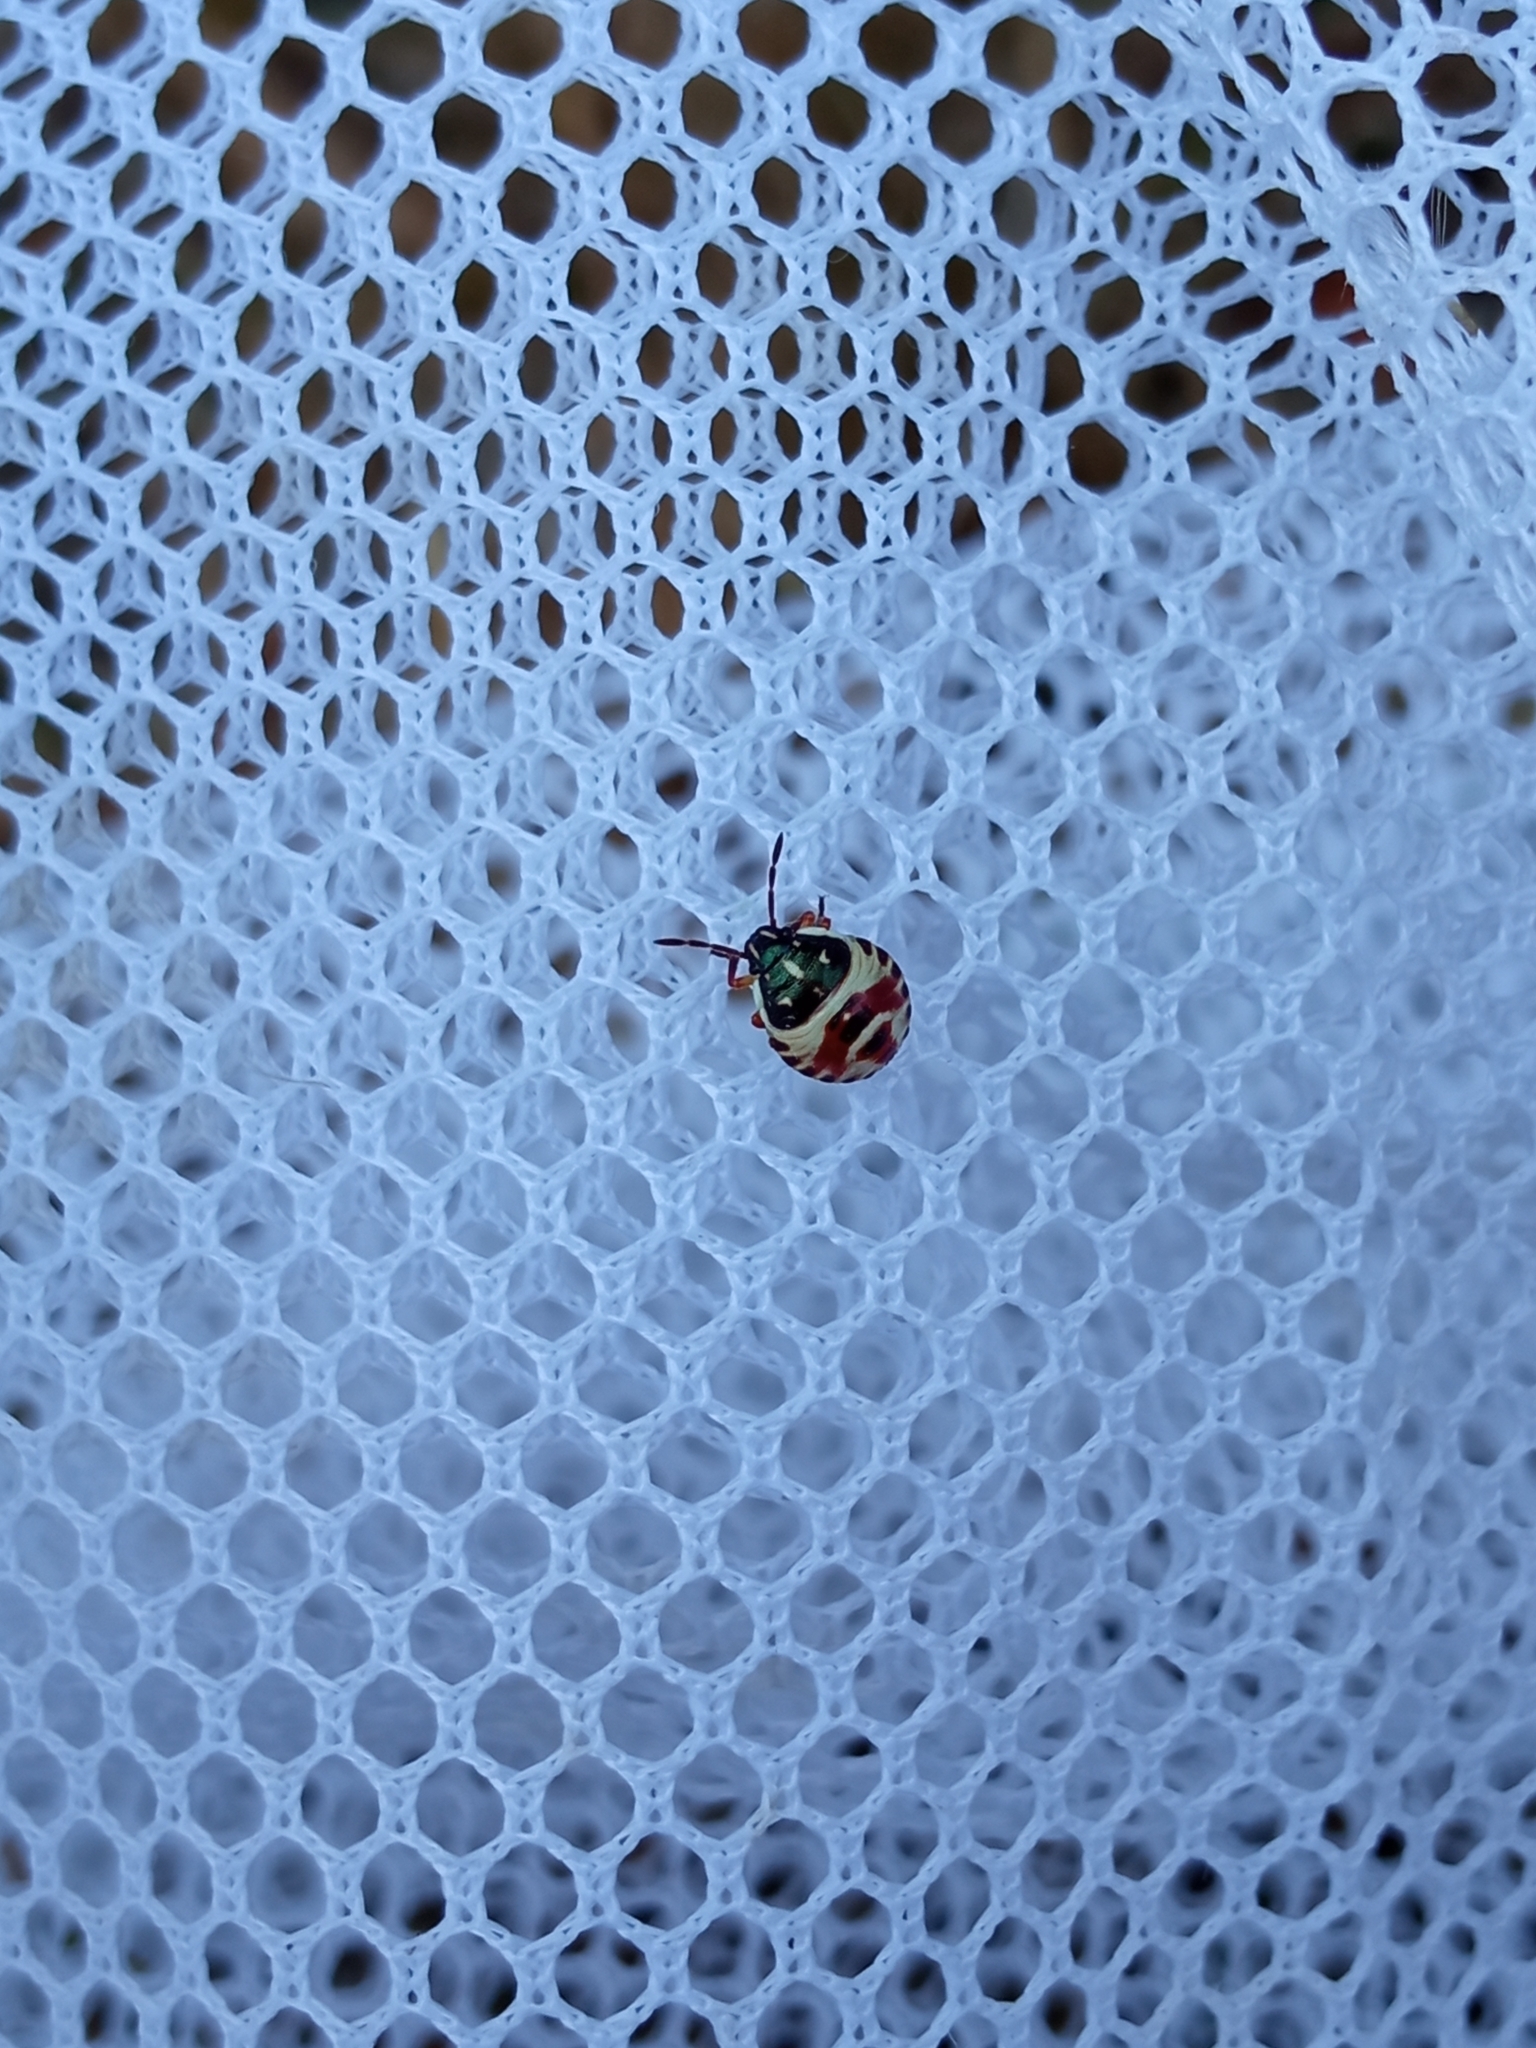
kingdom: Animalia
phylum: Arthropoda
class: Insecta
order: Hemiptera
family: Pentatomidae
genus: Carpocoris
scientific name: Carpocoris
